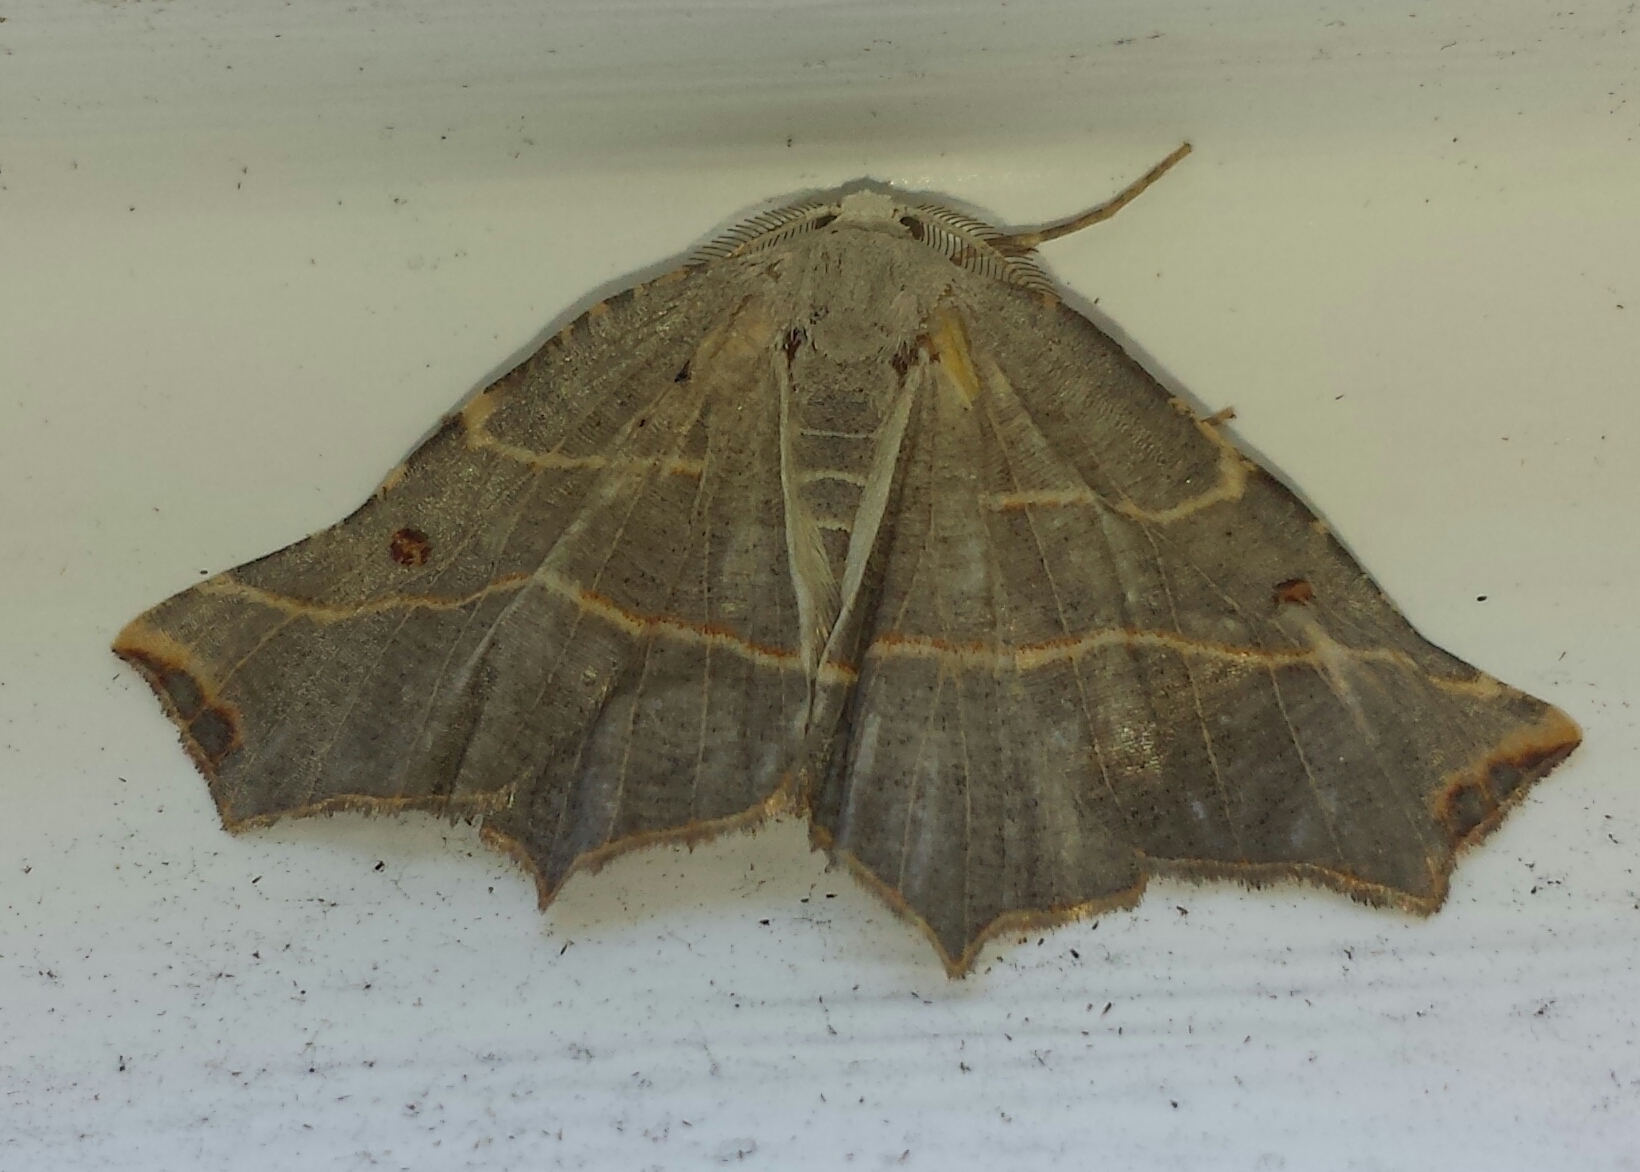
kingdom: Animalia
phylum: Arthropoda
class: Insecta
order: Lepidoptera
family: Geometridae
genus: Metanema
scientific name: Metanema inatomaria
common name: Pale metanema
